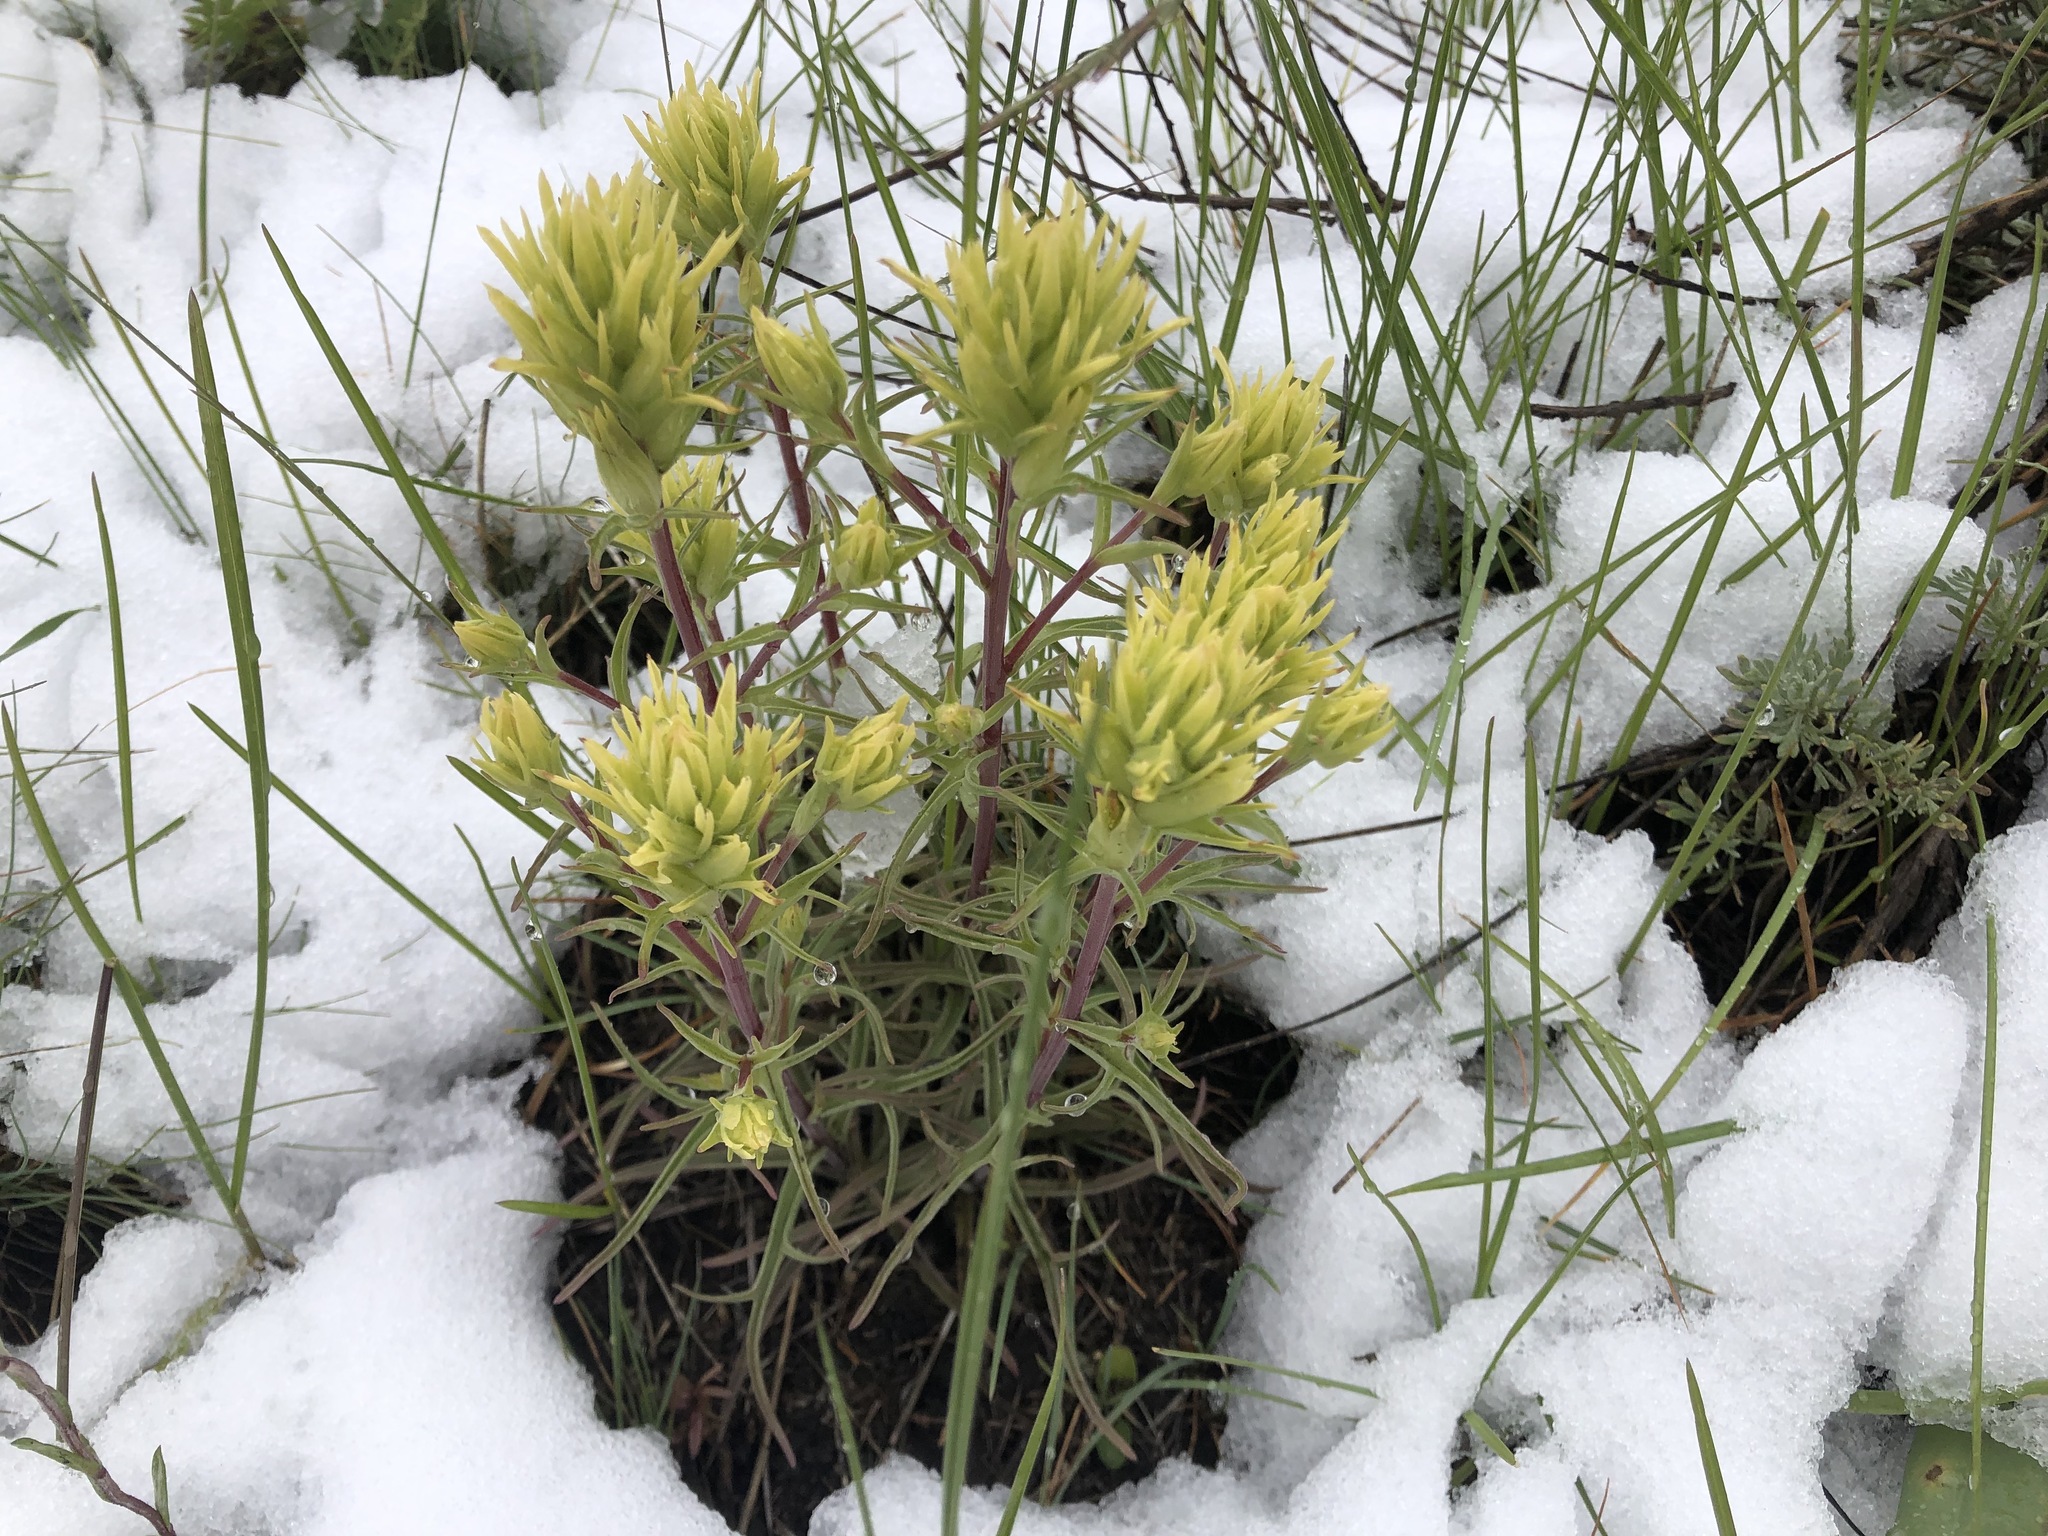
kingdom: Plantae
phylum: Tracheophyta
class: Magnoliopsida
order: Lamiales
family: Orobanchaceae
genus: Castilleja
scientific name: Castilleja flava
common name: Yellow paintbrush
